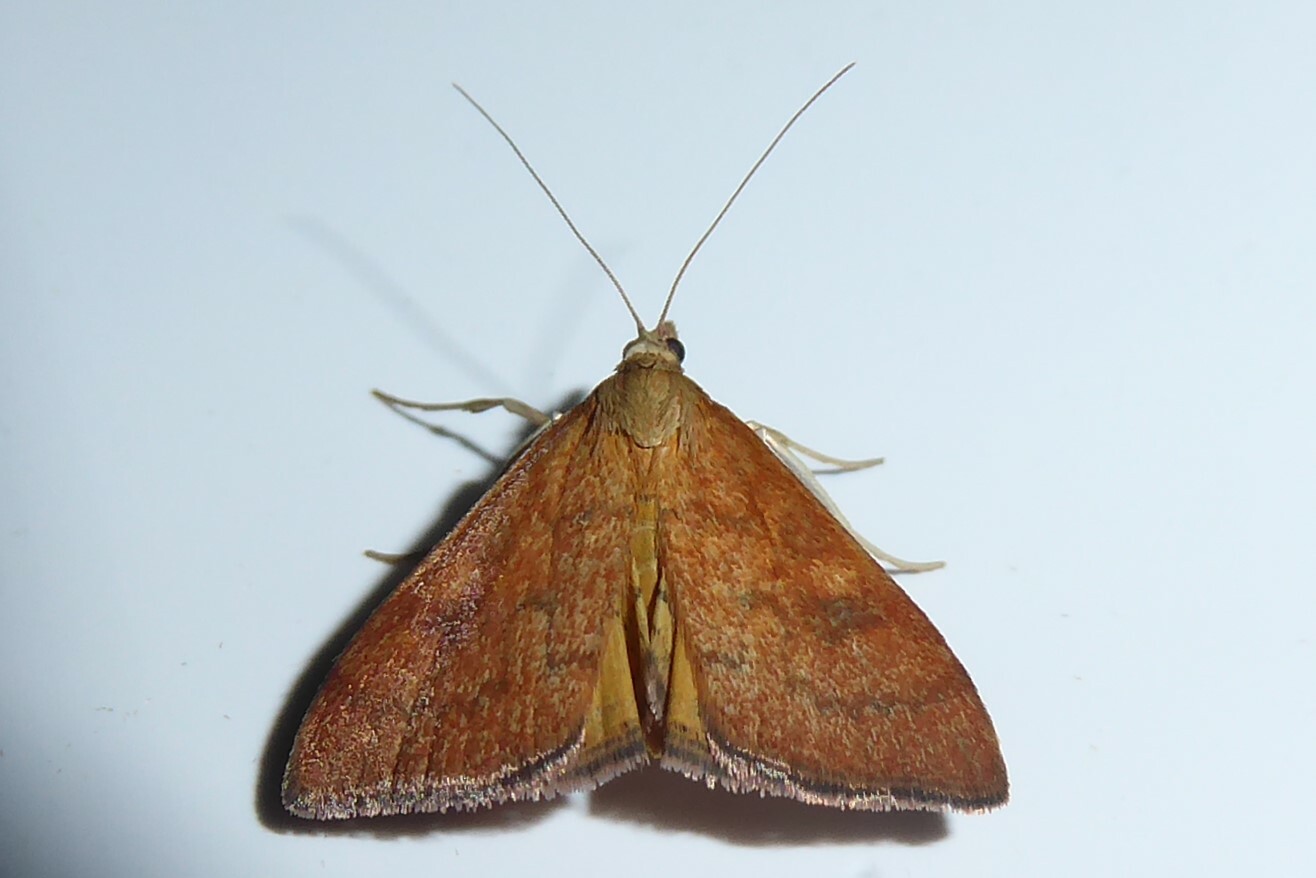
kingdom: Animalia
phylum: Arthropoda
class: Insecta
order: Lepidoptera
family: Crambidae
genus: Udea
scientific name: Udea Mnesictena flavidalis
